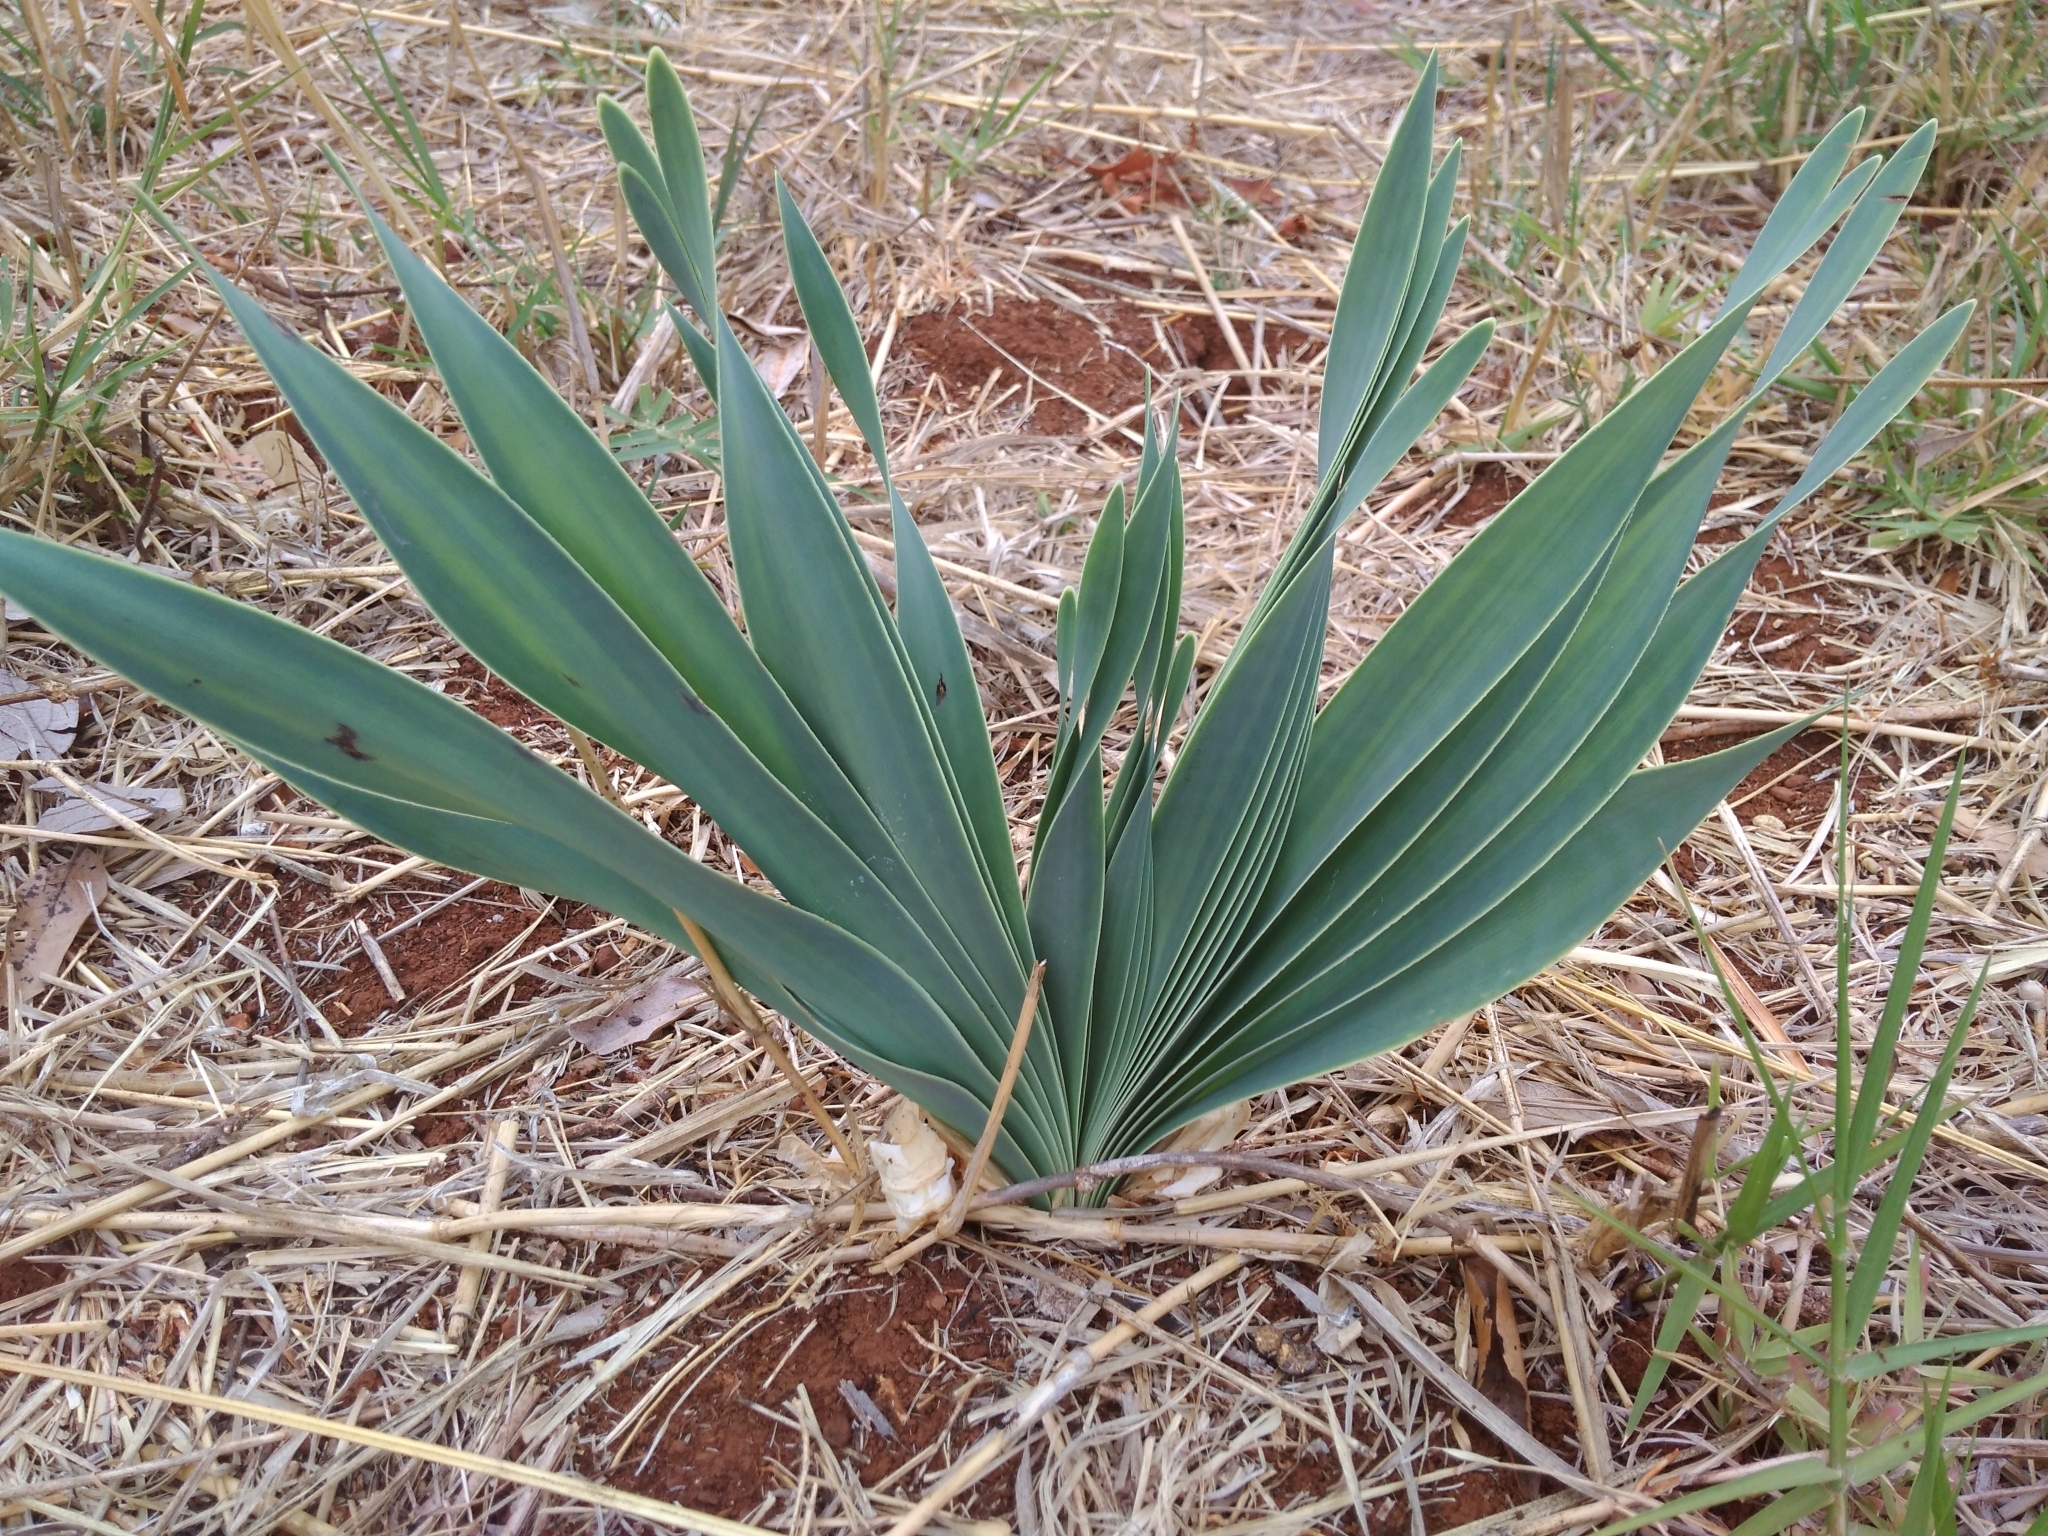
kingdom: Plantae
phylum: Tracheophyta
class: Liliopsida
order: Asparagales
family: Amaryllidaceae
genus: Boophone
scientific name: Boophone disticha
